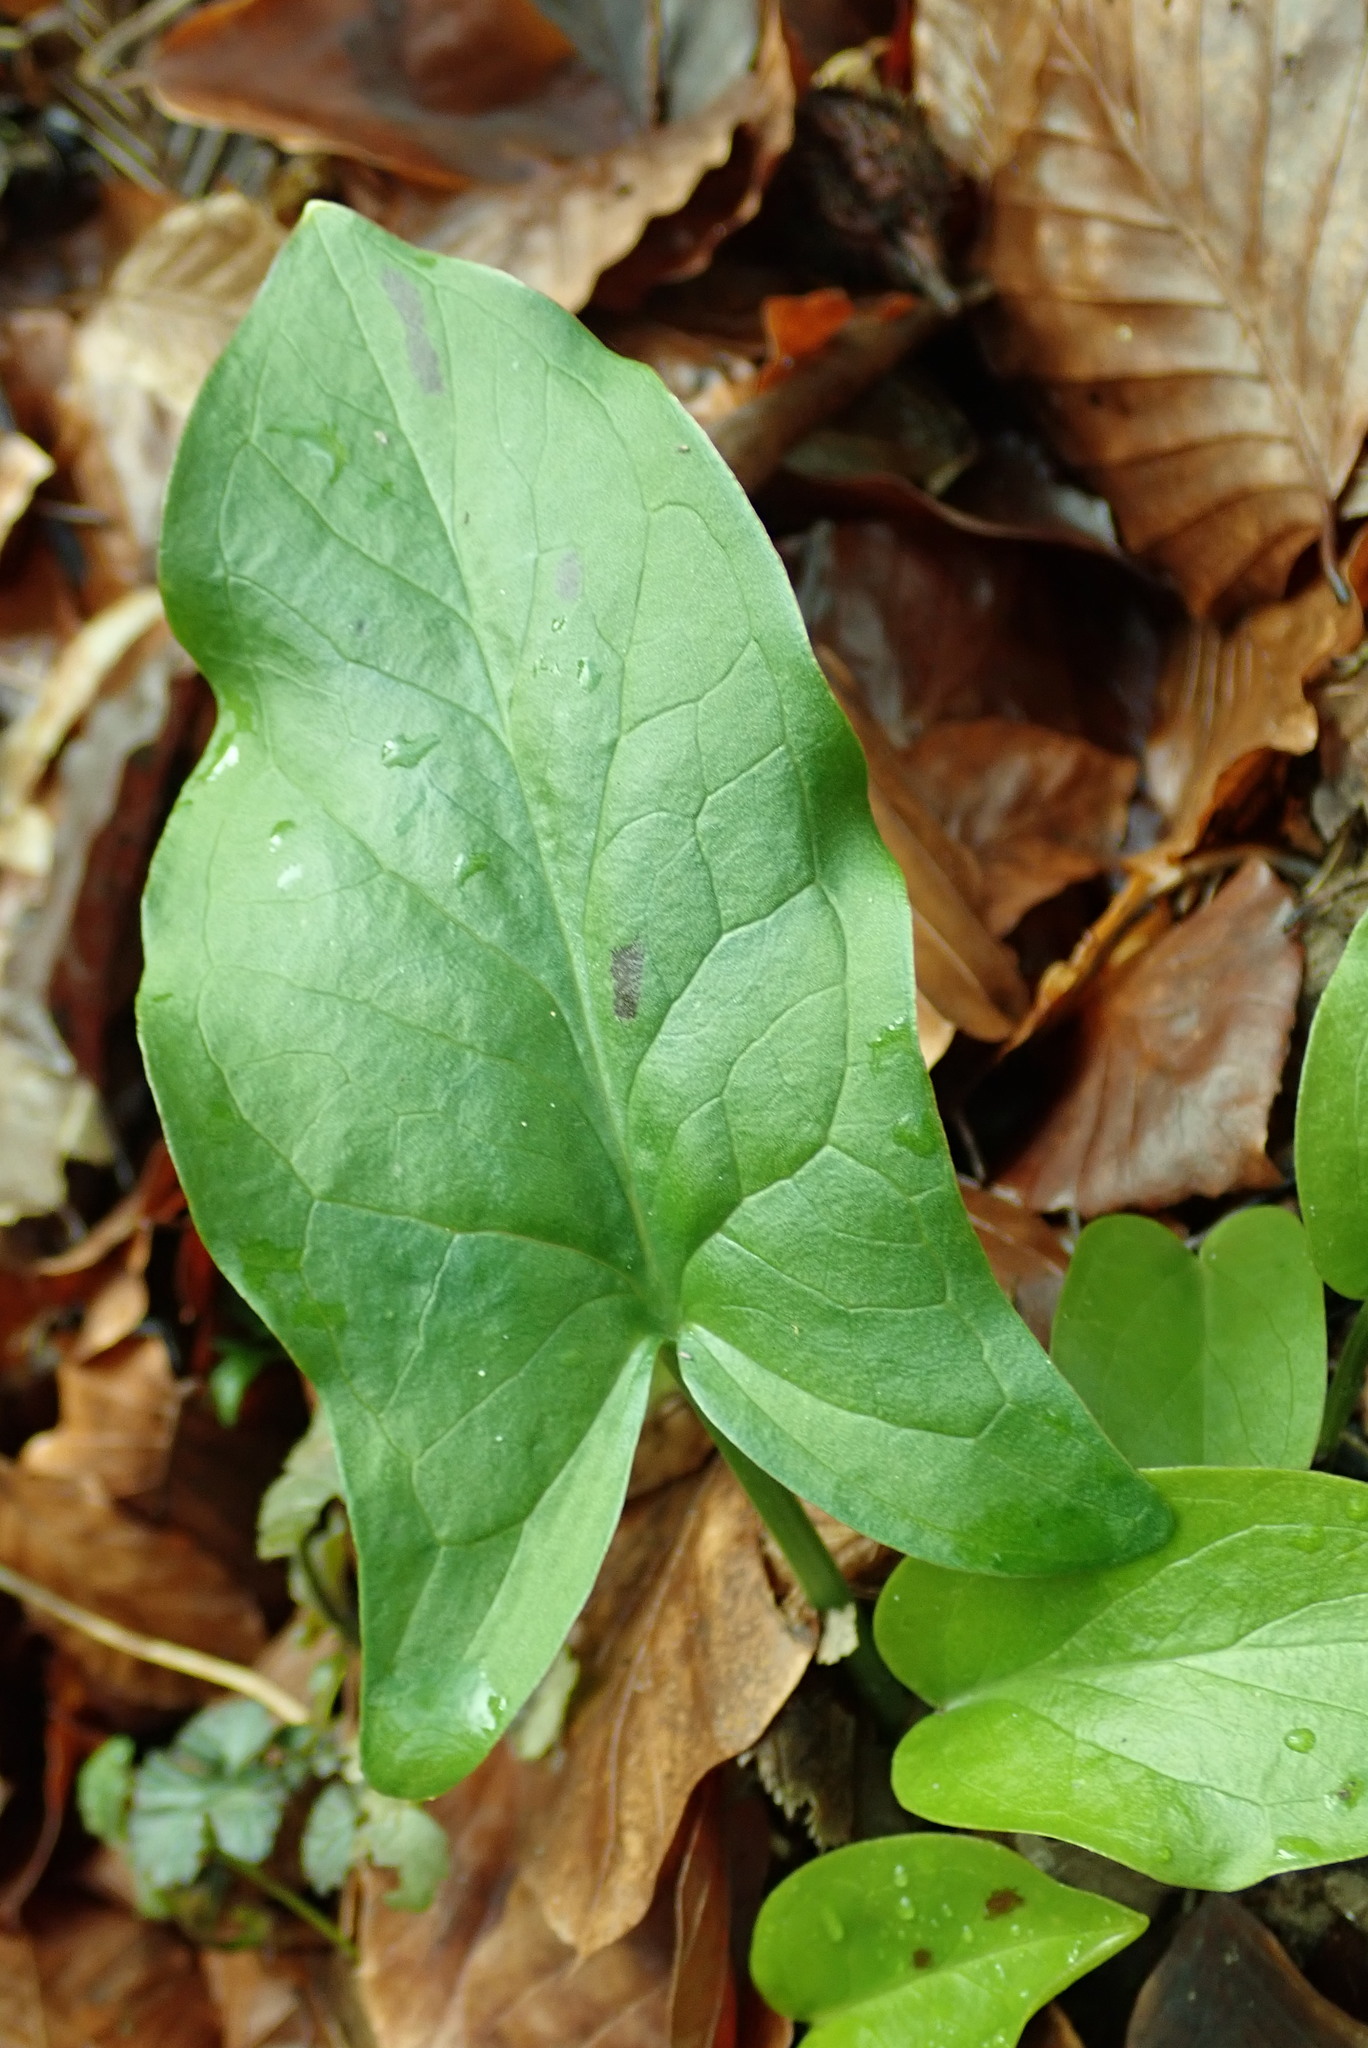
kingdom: Plantae
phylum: Tracheophyta
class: Liliopsida
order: Alismatales
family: Araceae
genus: Arum
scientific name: Arum maculatum
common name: Lords-and-ladies
